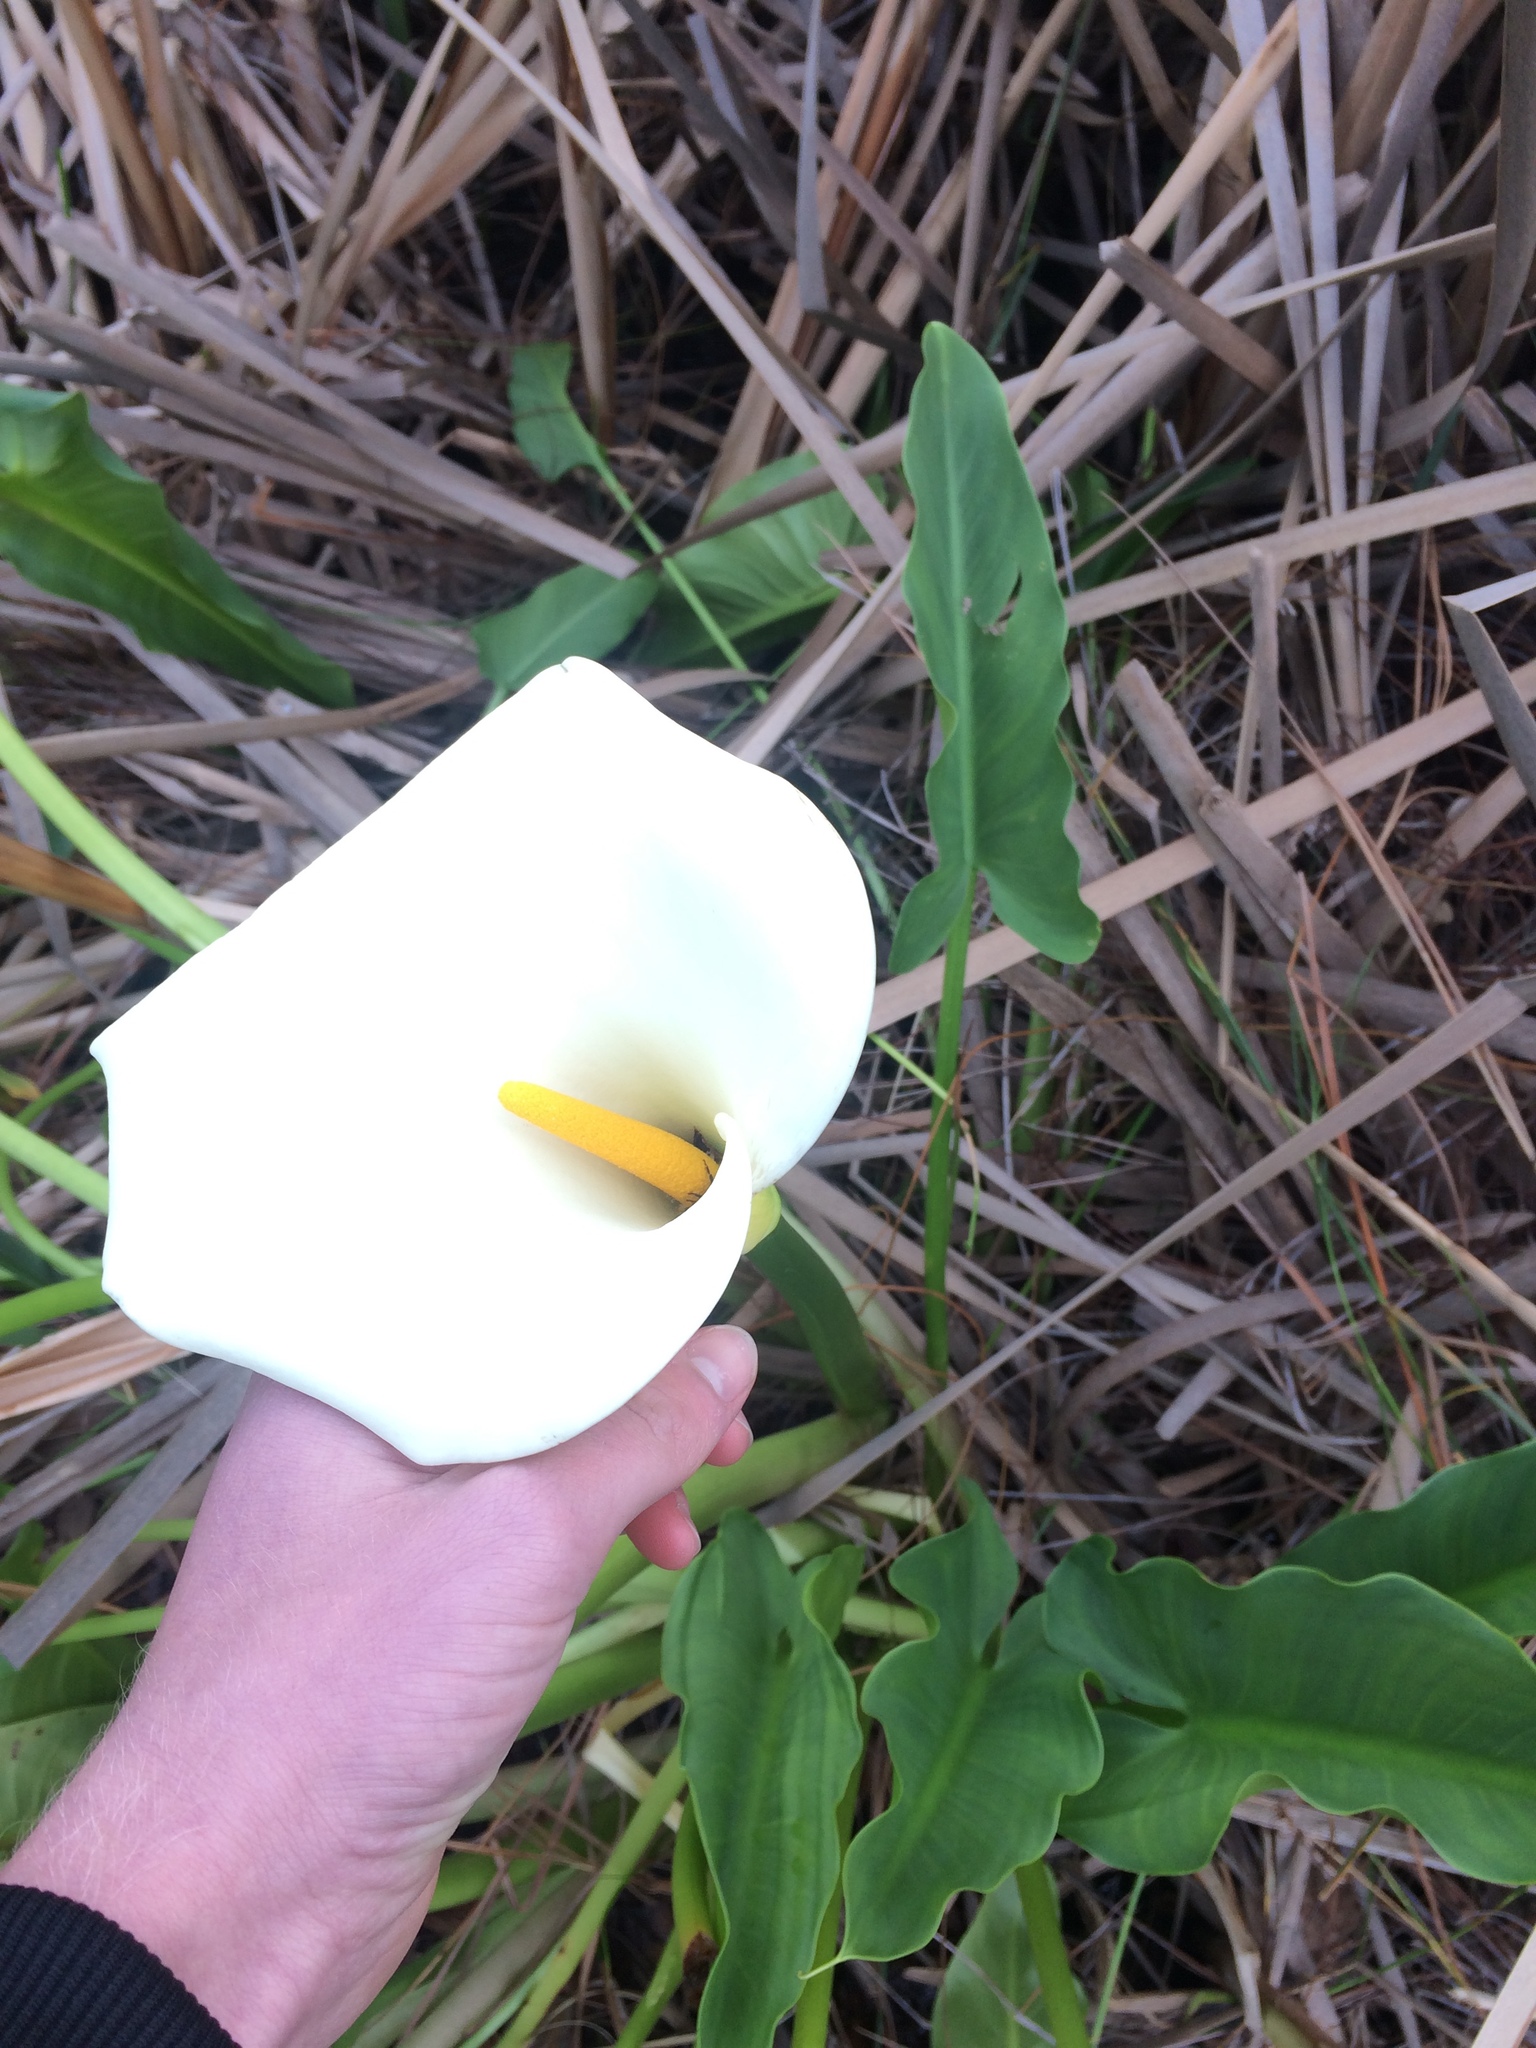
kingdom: Plantae
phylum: Tracheophyta
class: Liliopsida
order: Alismatales
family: Araceae
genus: Zantedeschia
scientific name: Zantedeschia aethiopica
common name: Altar-lily
